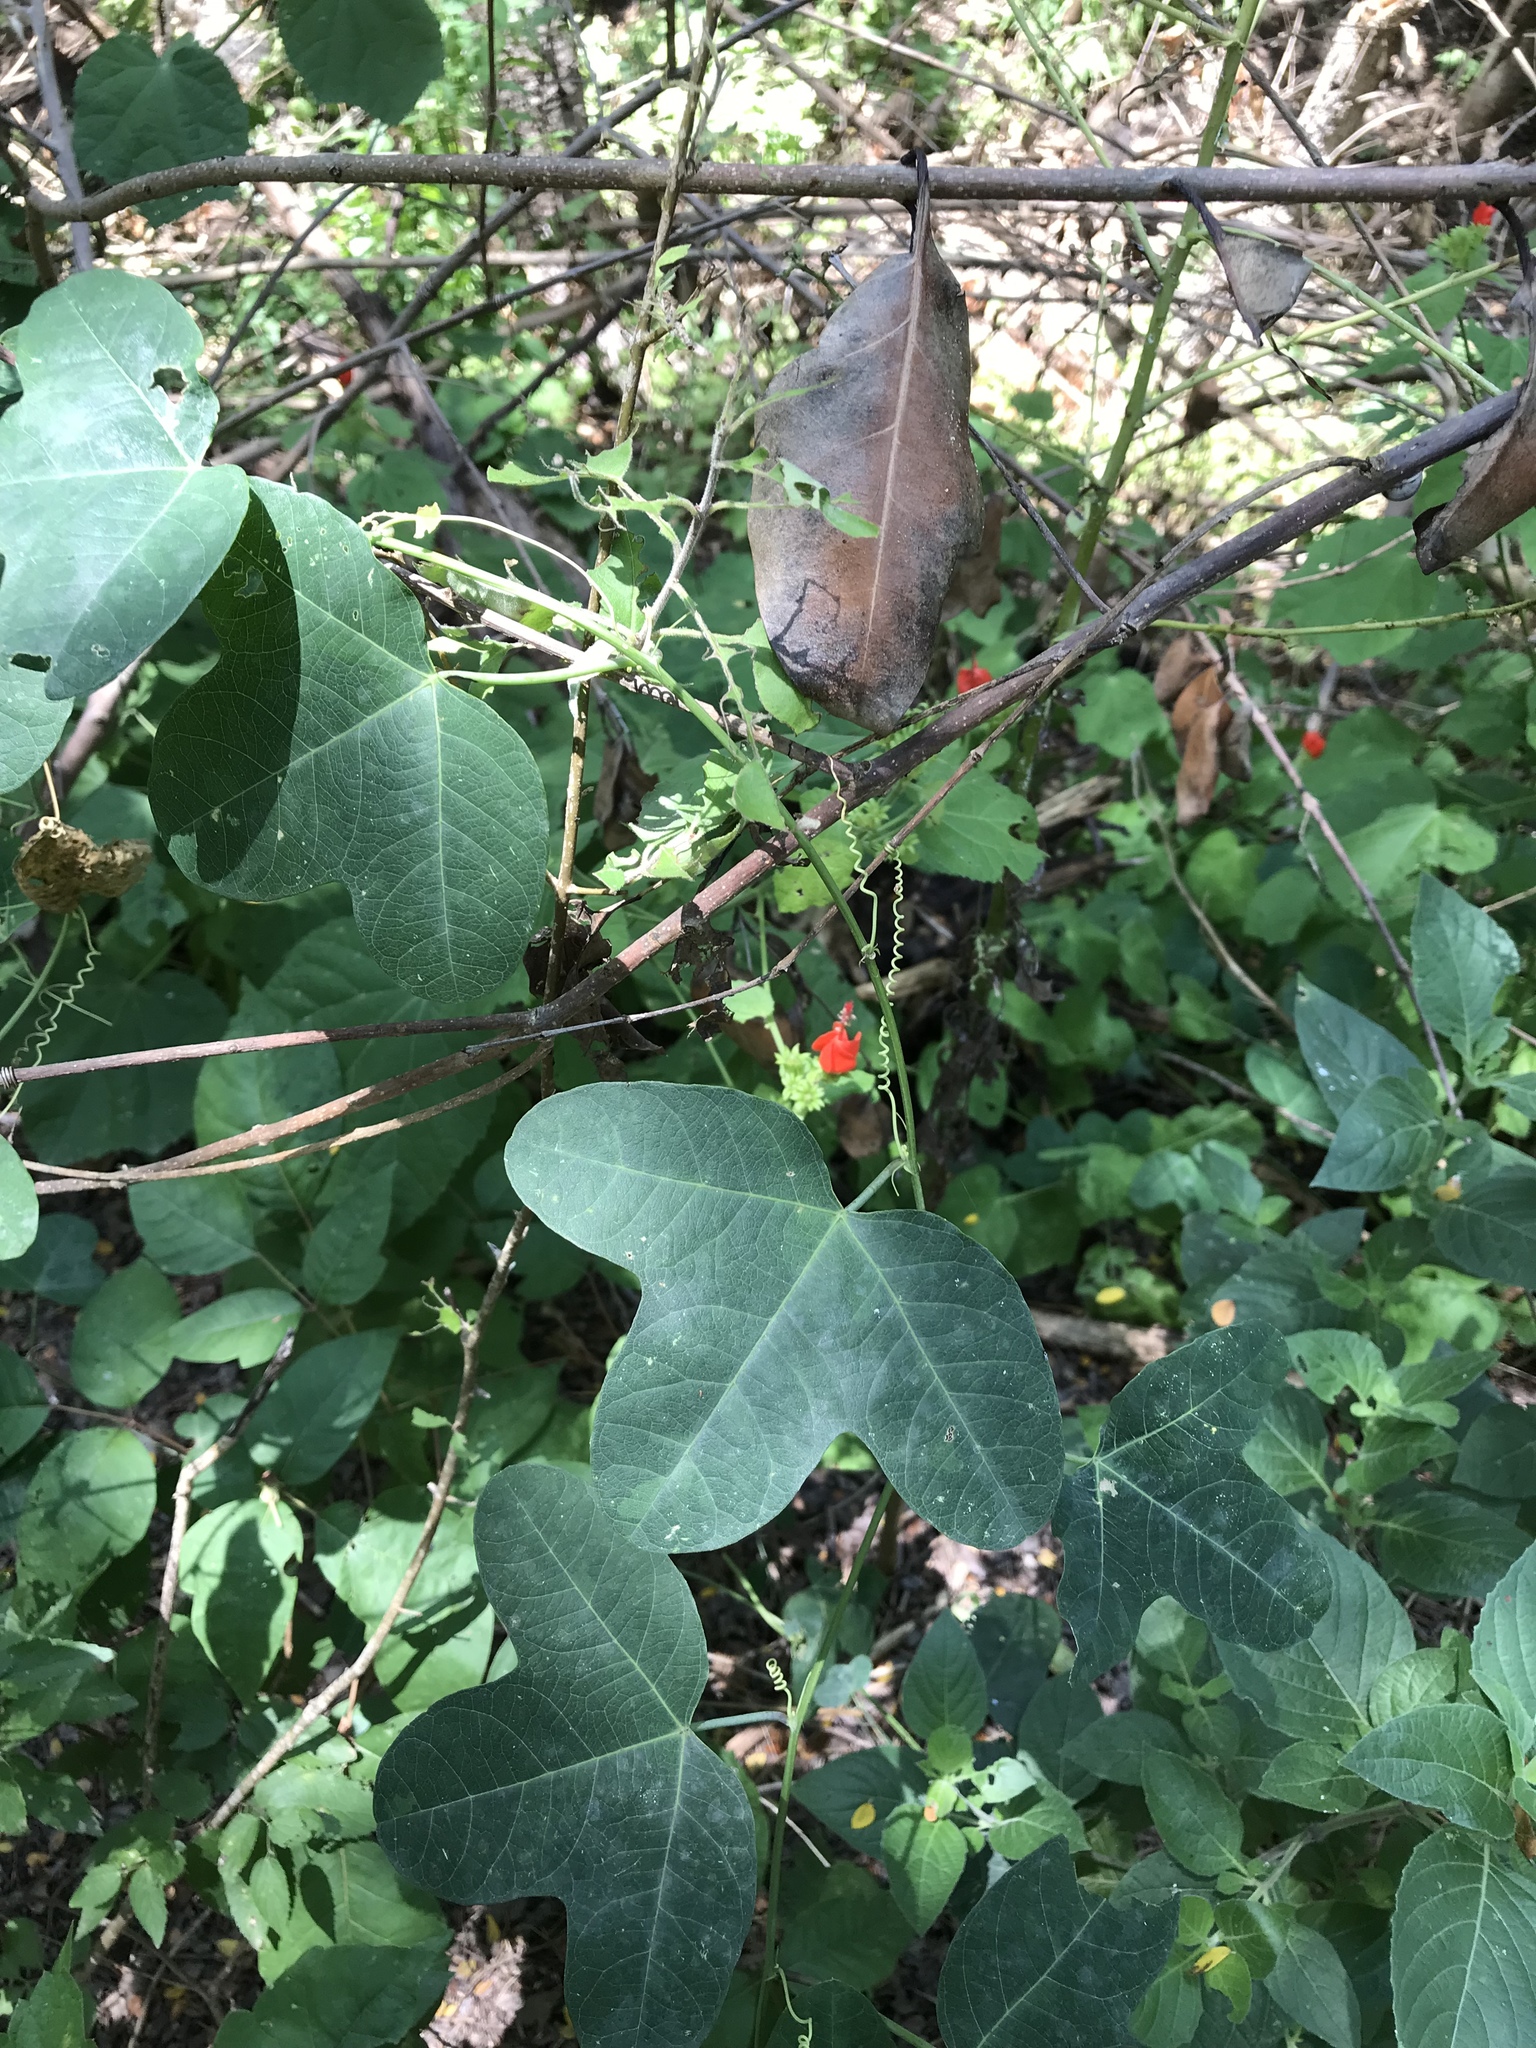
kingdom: Plantae
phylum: Tracheophyta
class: Magnoliopsida
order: Malpighiales
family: Passifloraceae
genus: Passiflora
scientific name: Passiflora lutea
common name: Yellow passionflower
